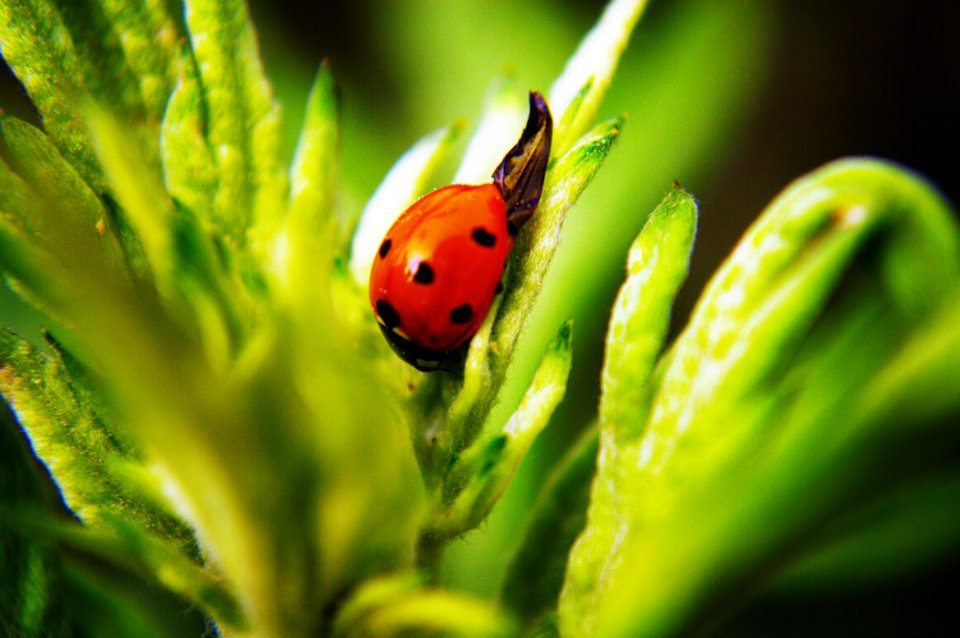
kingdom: Animalia
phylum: Arthropoda
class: Insecta
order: Coleoptera
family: Coccinellidae
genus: Coccinella
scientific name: Coccinella septempunctata
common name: Sevenspotted lady beetle
